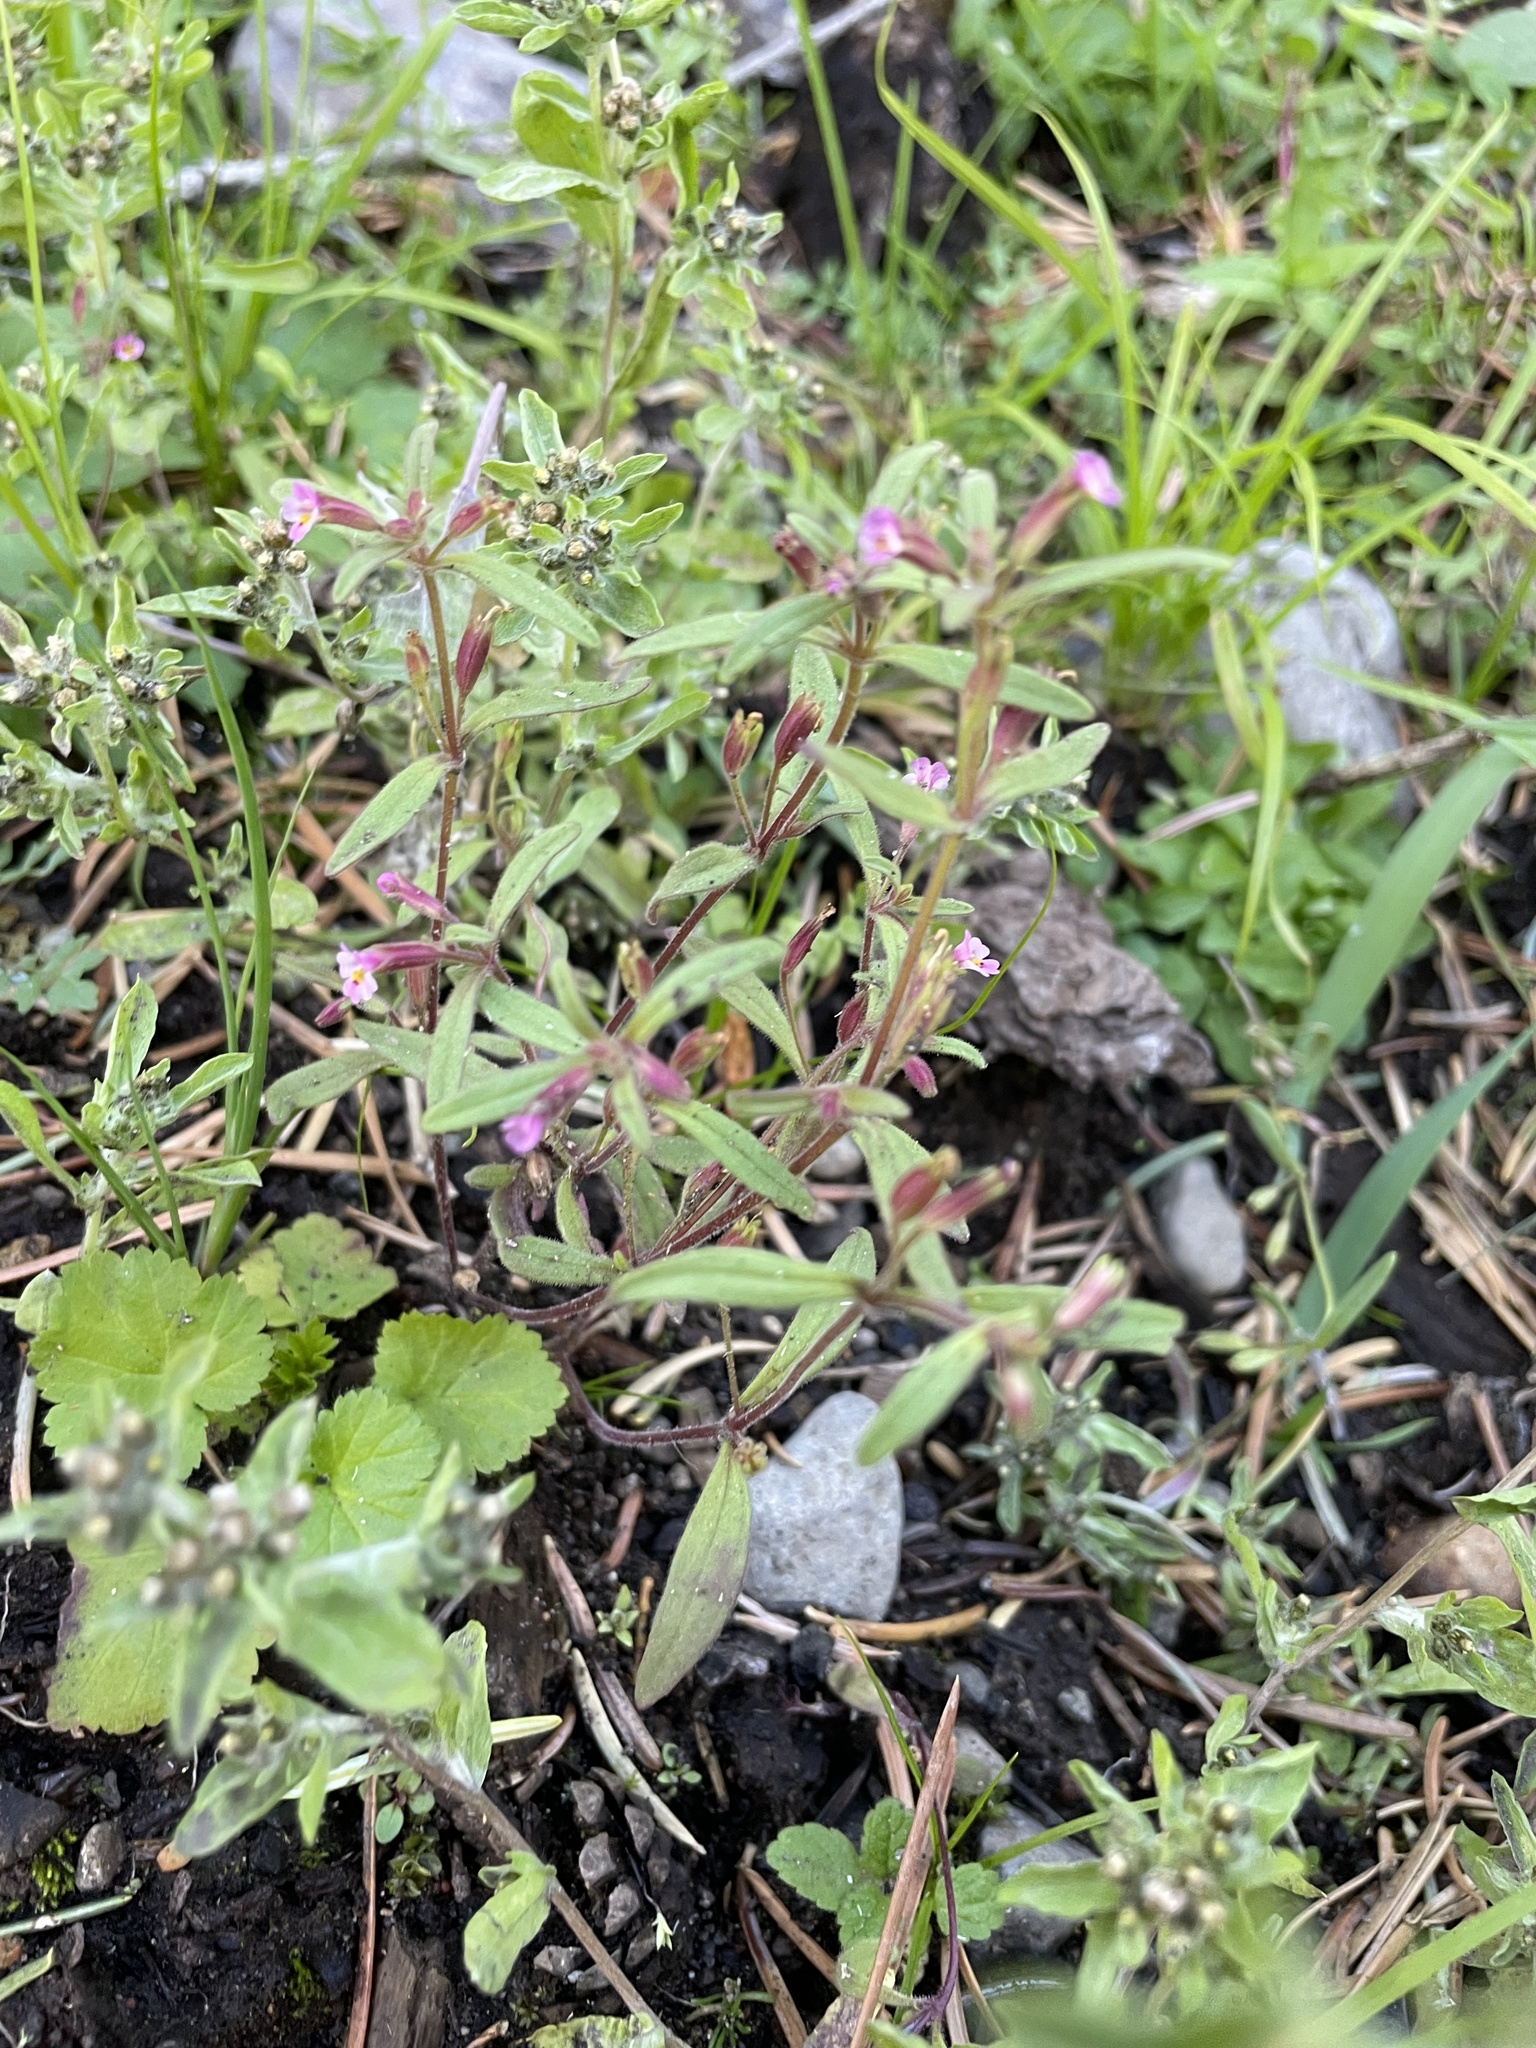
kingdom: Plantae
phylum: Tracheophyta
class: Magnoliopsida
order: Lamiales
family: Phrymaceae
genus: Erythranthe
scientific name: Erythranthe breweri
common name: Brewer's monkeyflower
